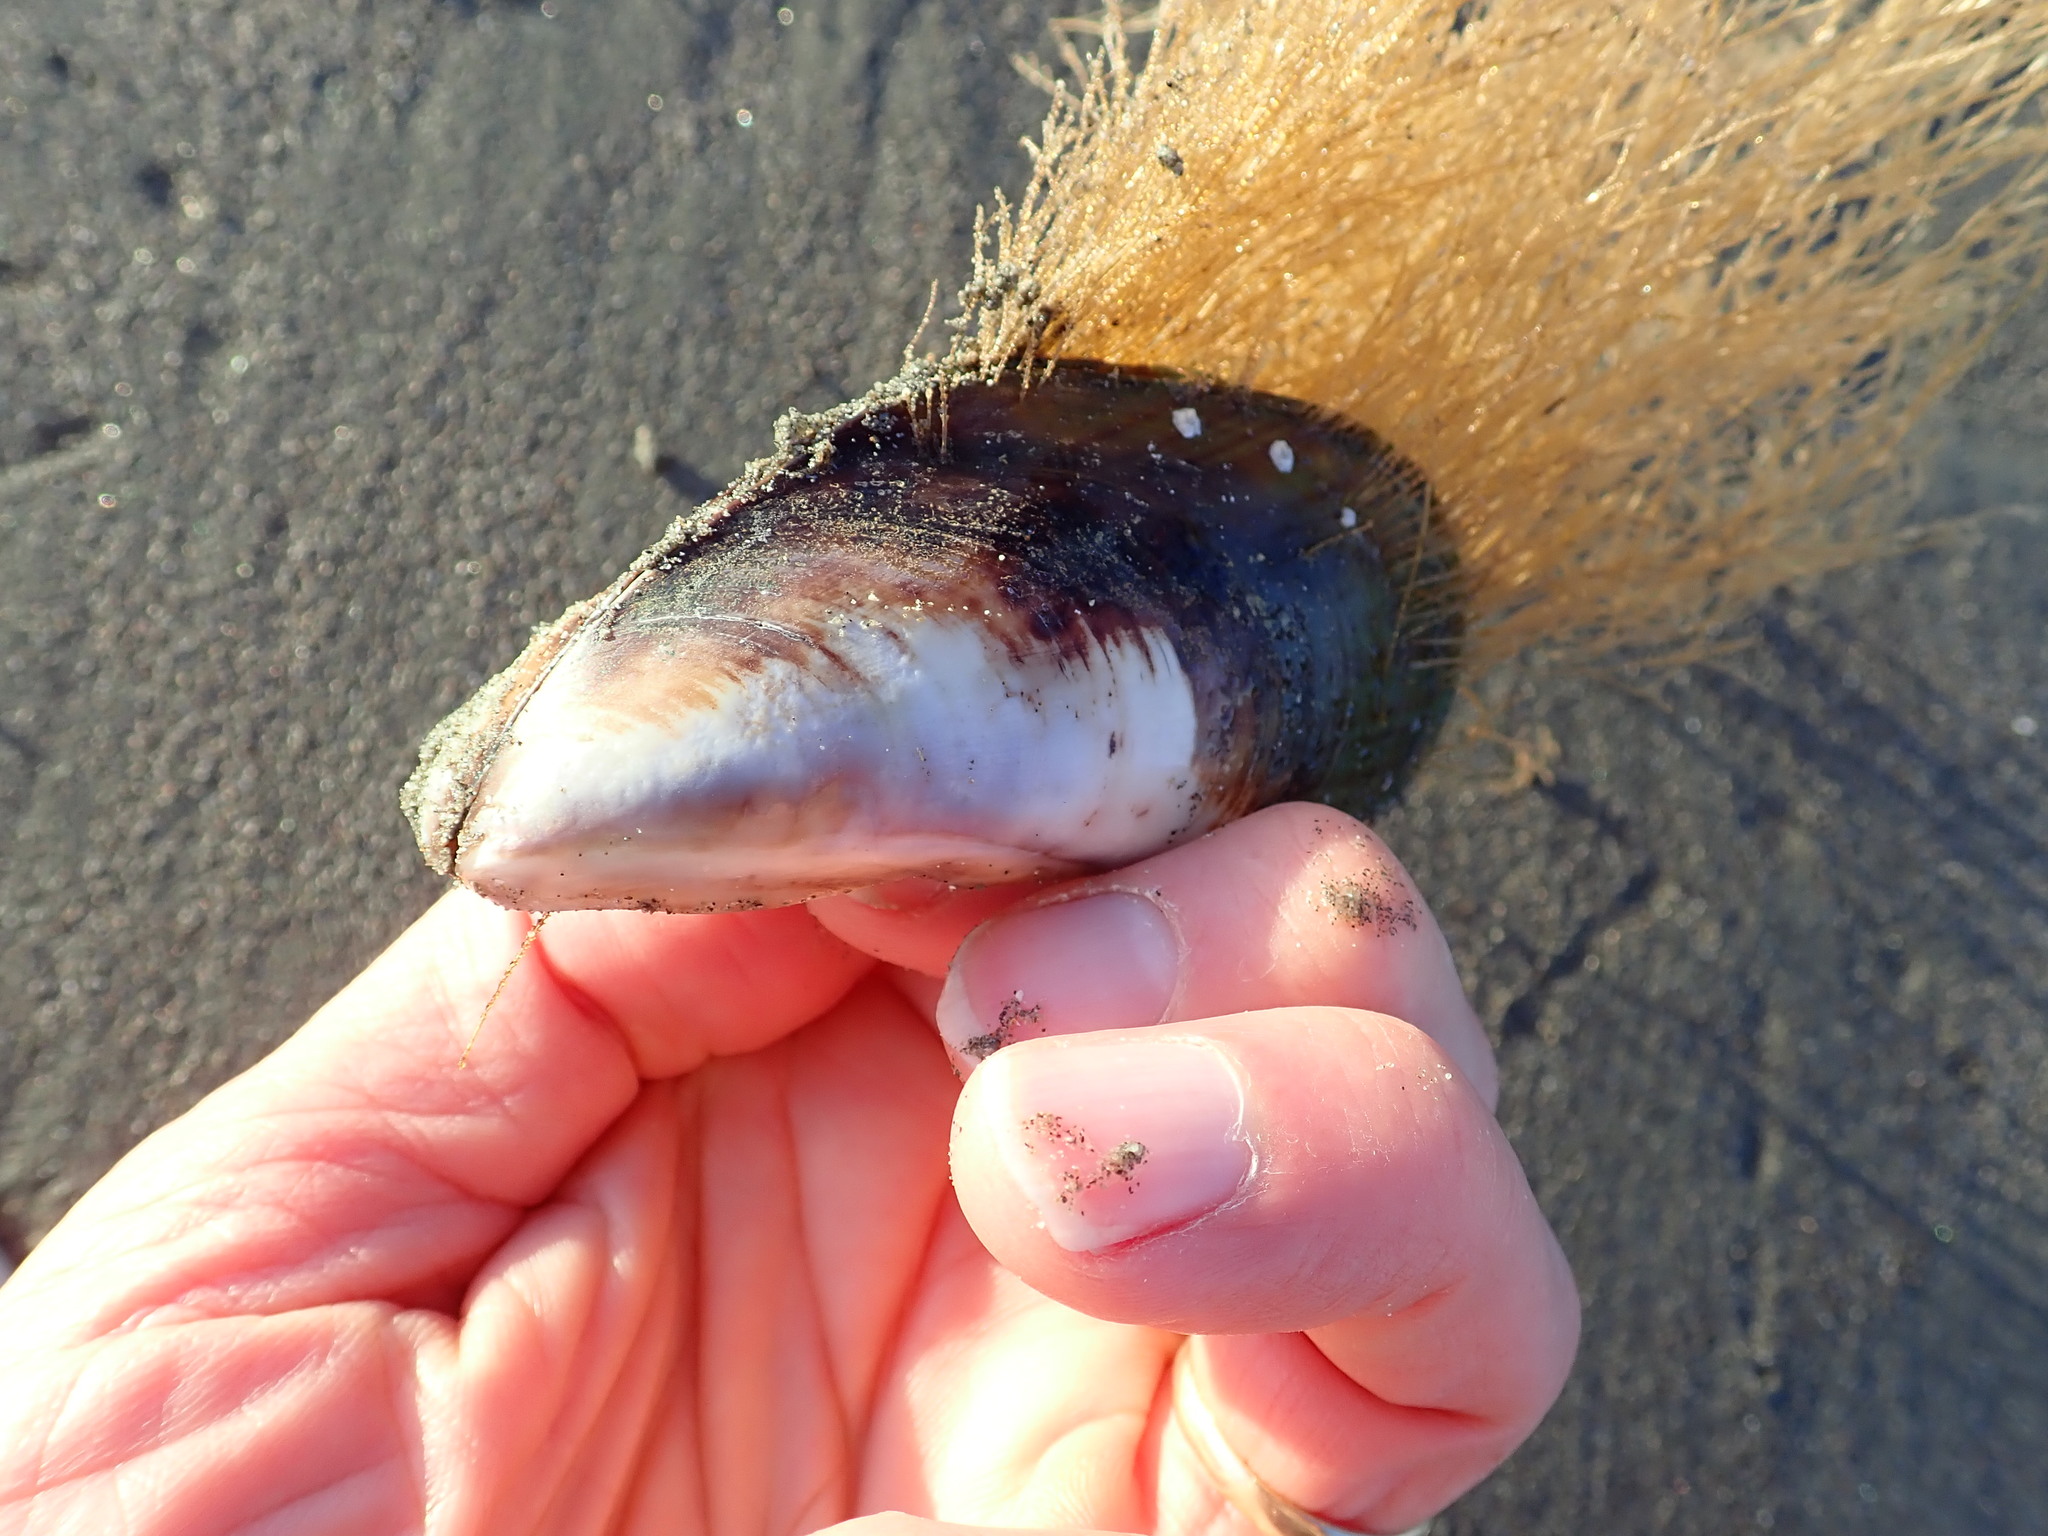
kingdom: Animalia
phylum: Mollusca
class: Bivalvia
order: Mytilida
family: Mytilidae
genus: Perna
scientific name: Perna canaliculus
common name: New zealand greenshelltm
